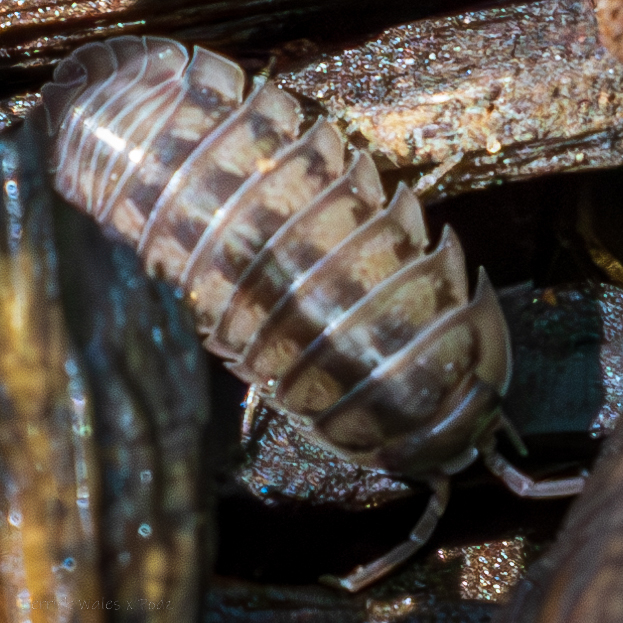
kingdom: Animalia
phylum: Arthropoda
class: Malacostraca
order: Isopoda
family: Armadillidiidae
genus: Armadillidium
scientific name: Armadillidium nasatum
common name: Isopod
